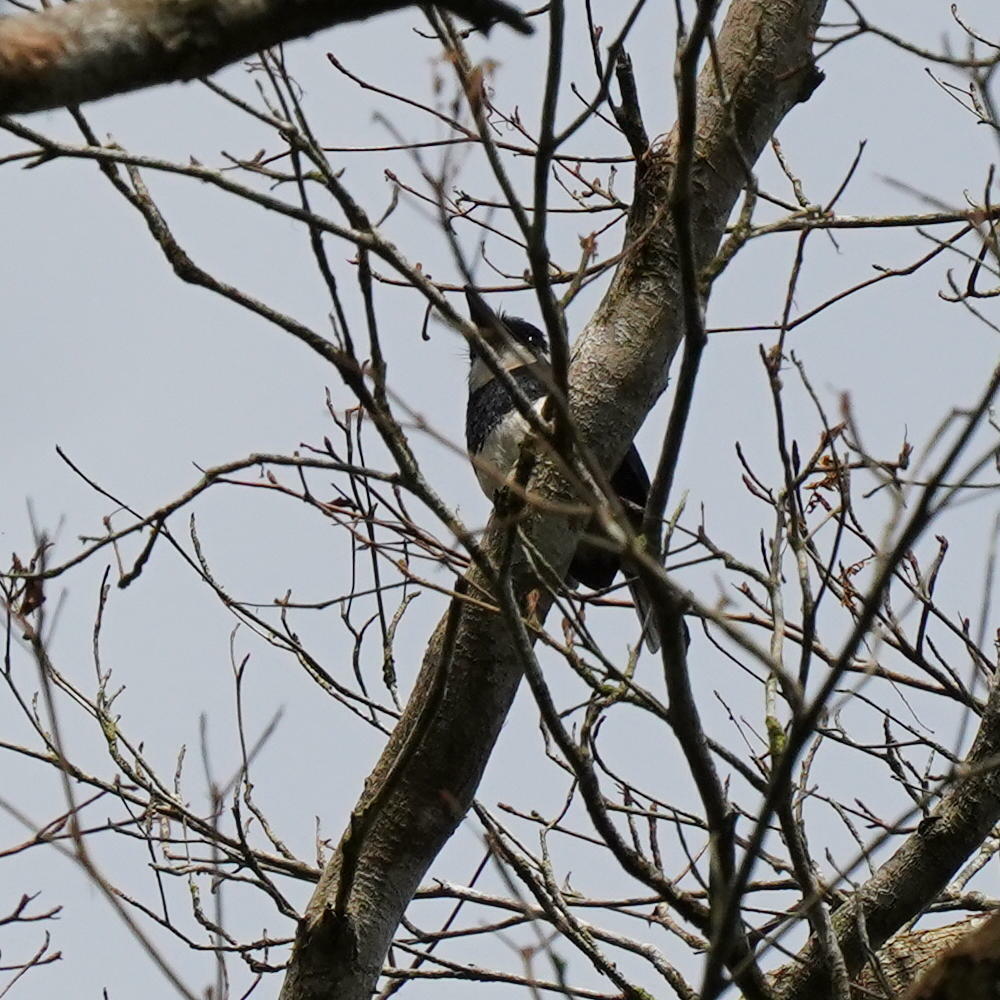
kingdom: Animalia
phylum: Chordata
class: Aves
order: Piciformes
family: Bucconidae
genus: Notharchus
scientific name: Notharchus pectoralis
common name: Black-breasted puffbird
